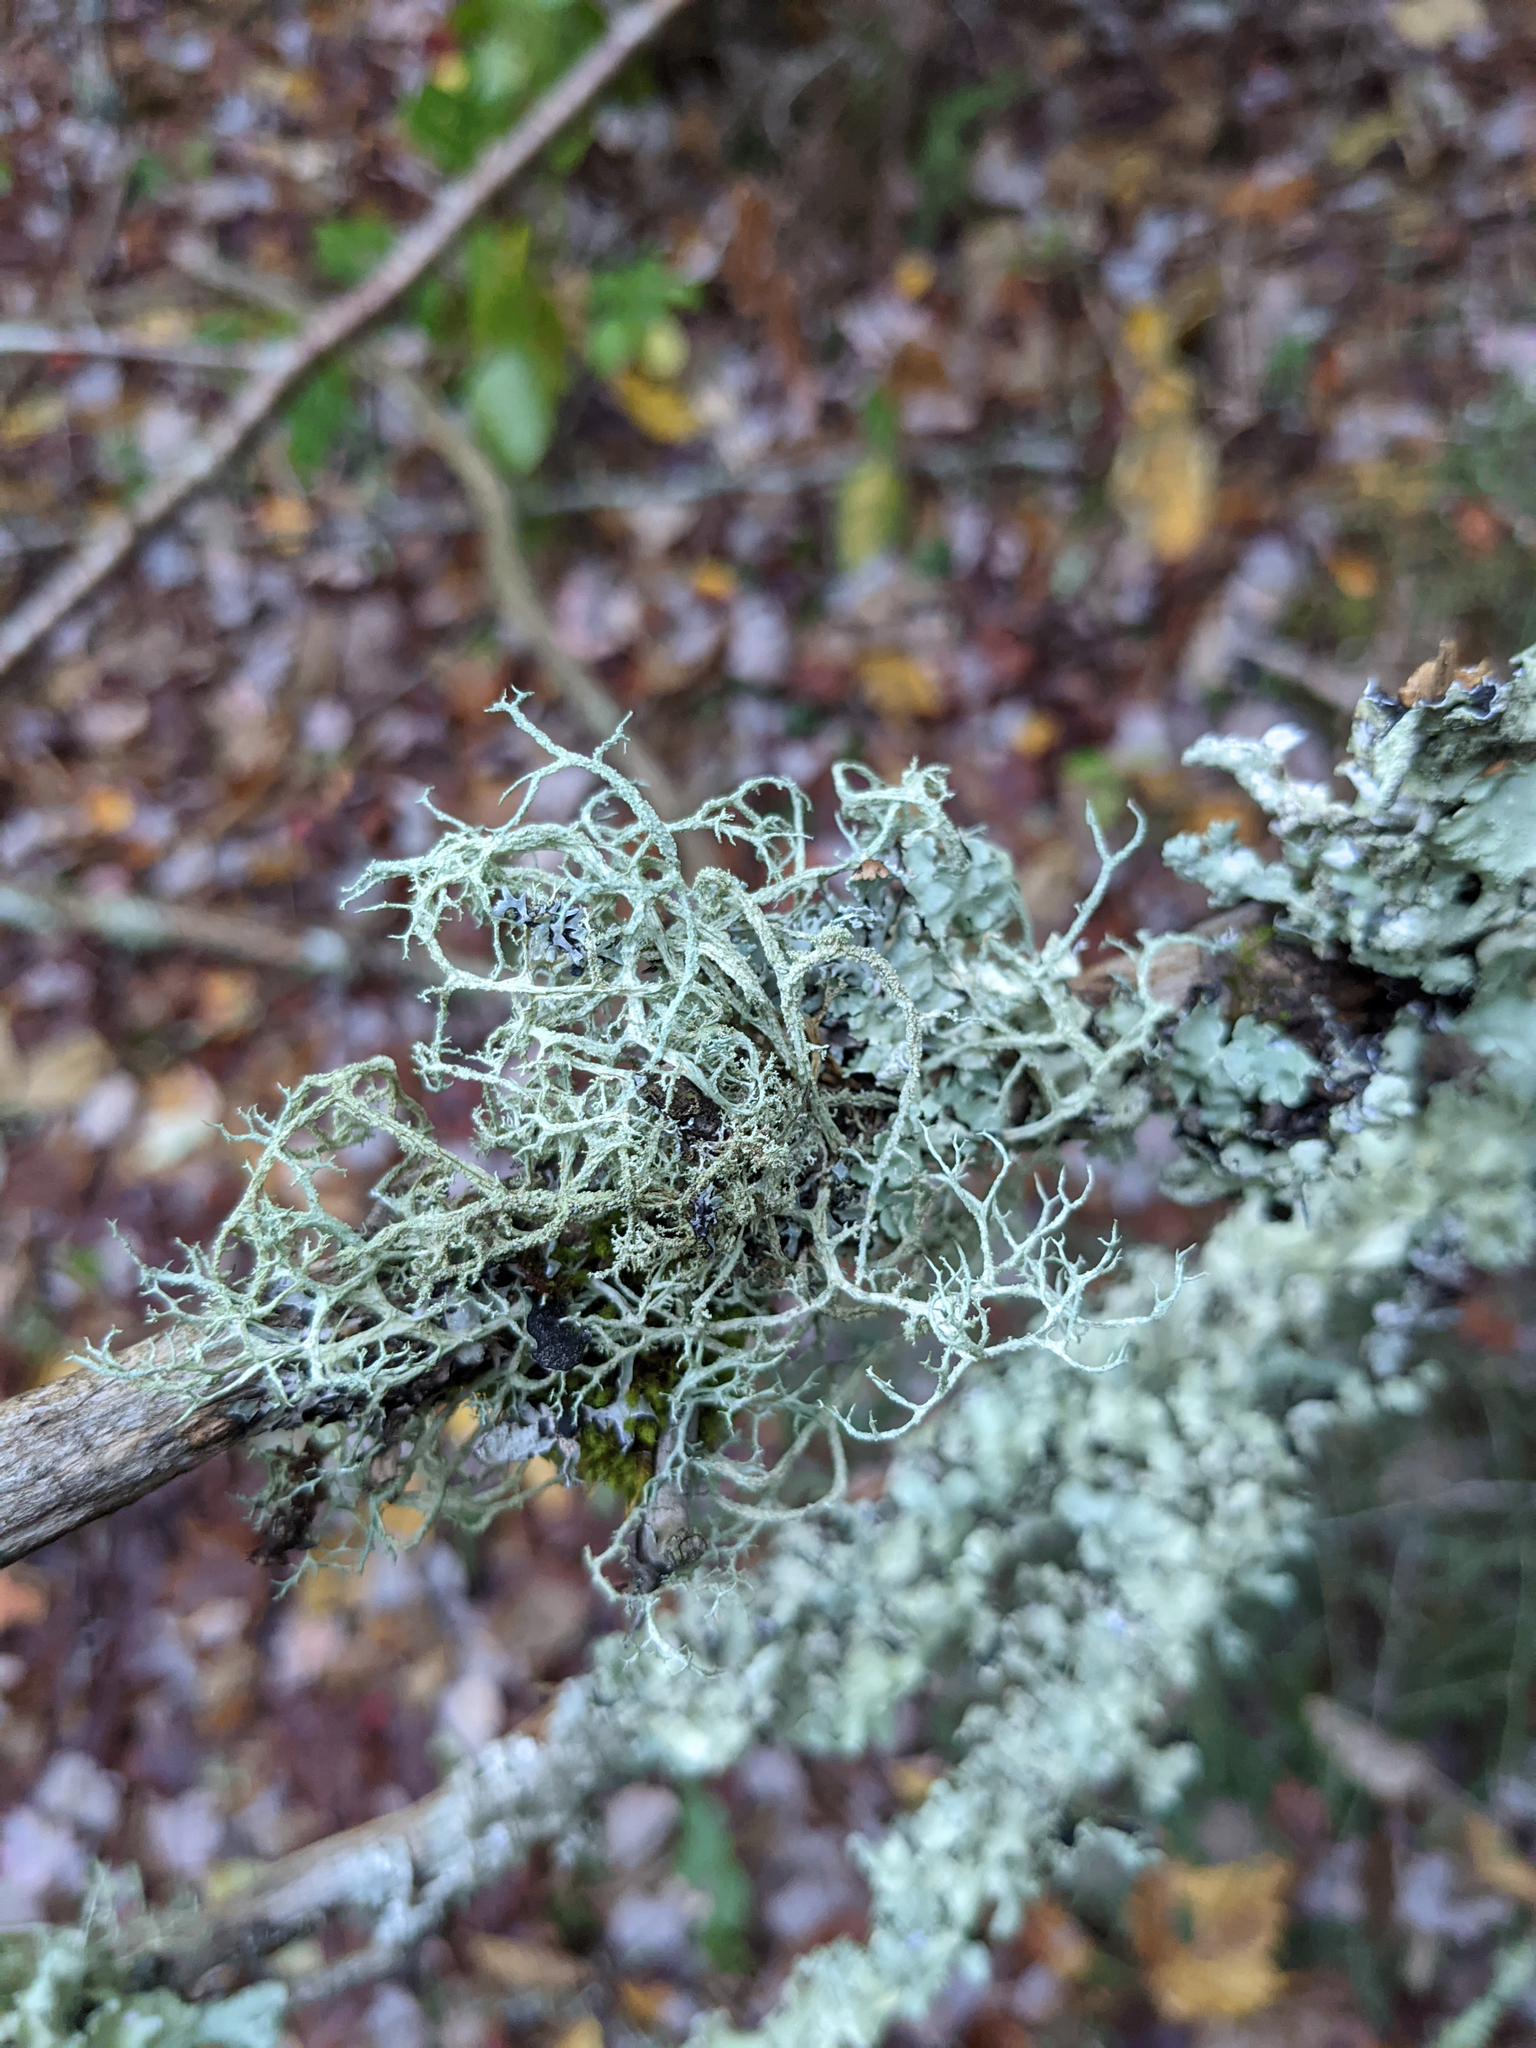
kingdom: Fungi
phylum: Ascomycota
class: Lecanoromycetes
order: Lecanorales
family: Parmeliaceae
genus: Evernia
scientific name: Evernia mesomorpha
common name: Boreal oak moss lichen
